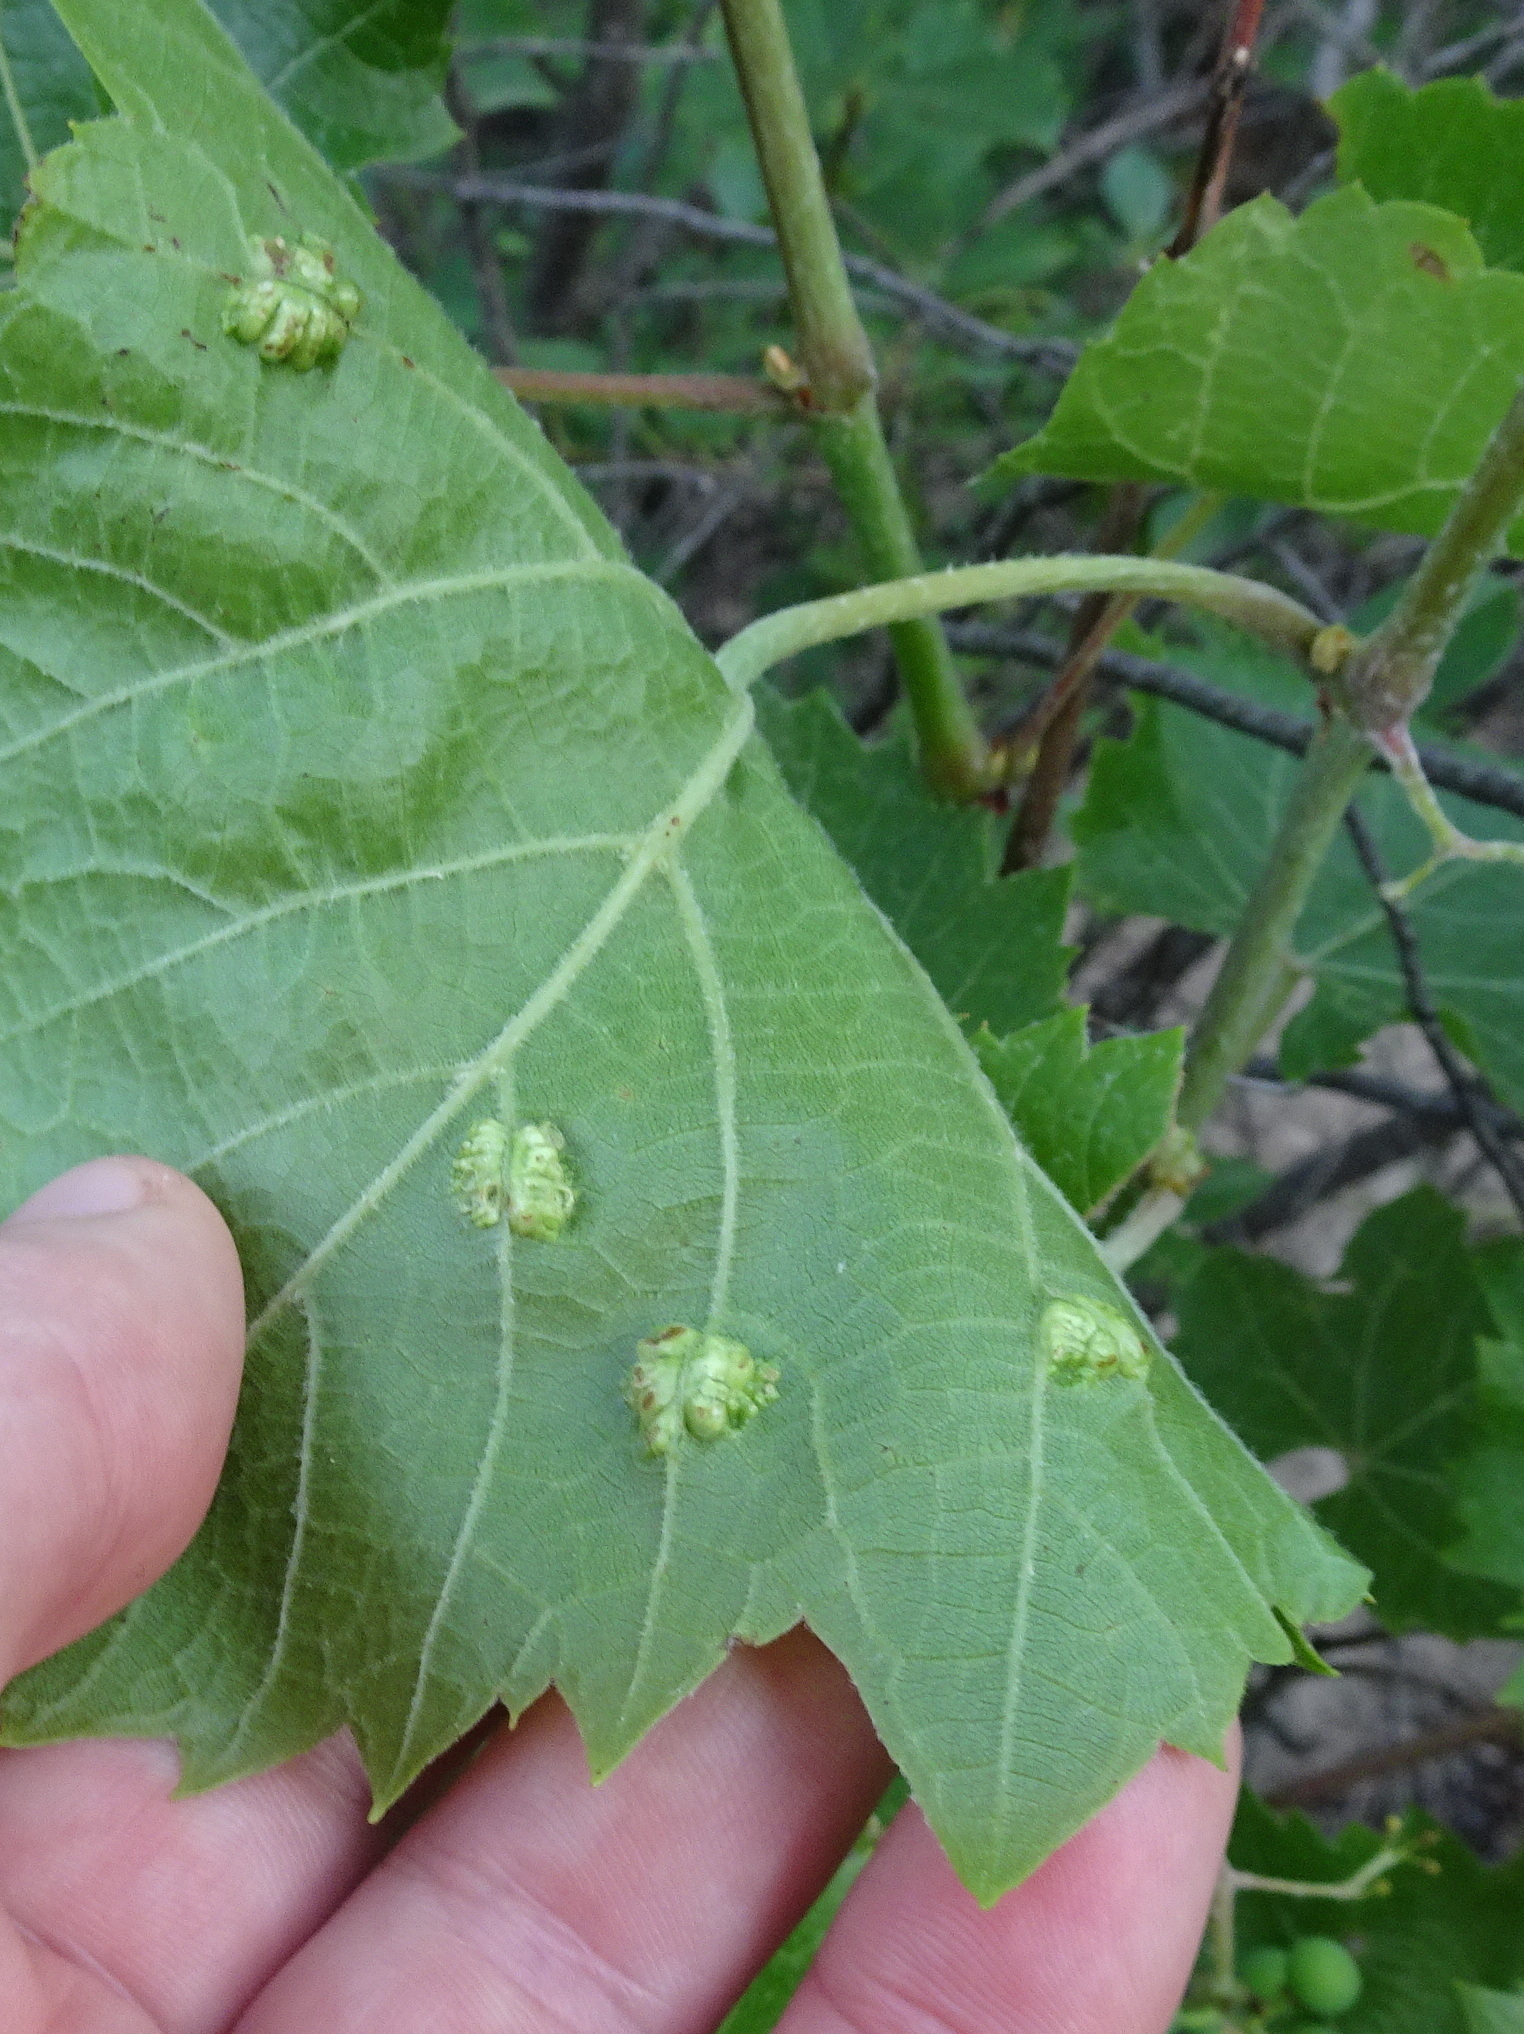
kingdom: Animalia
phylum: Arthropoda
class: Insecta
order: Lepidoptera
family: Heliozelidae
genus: Heliozela
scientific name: Heliozela aesella
